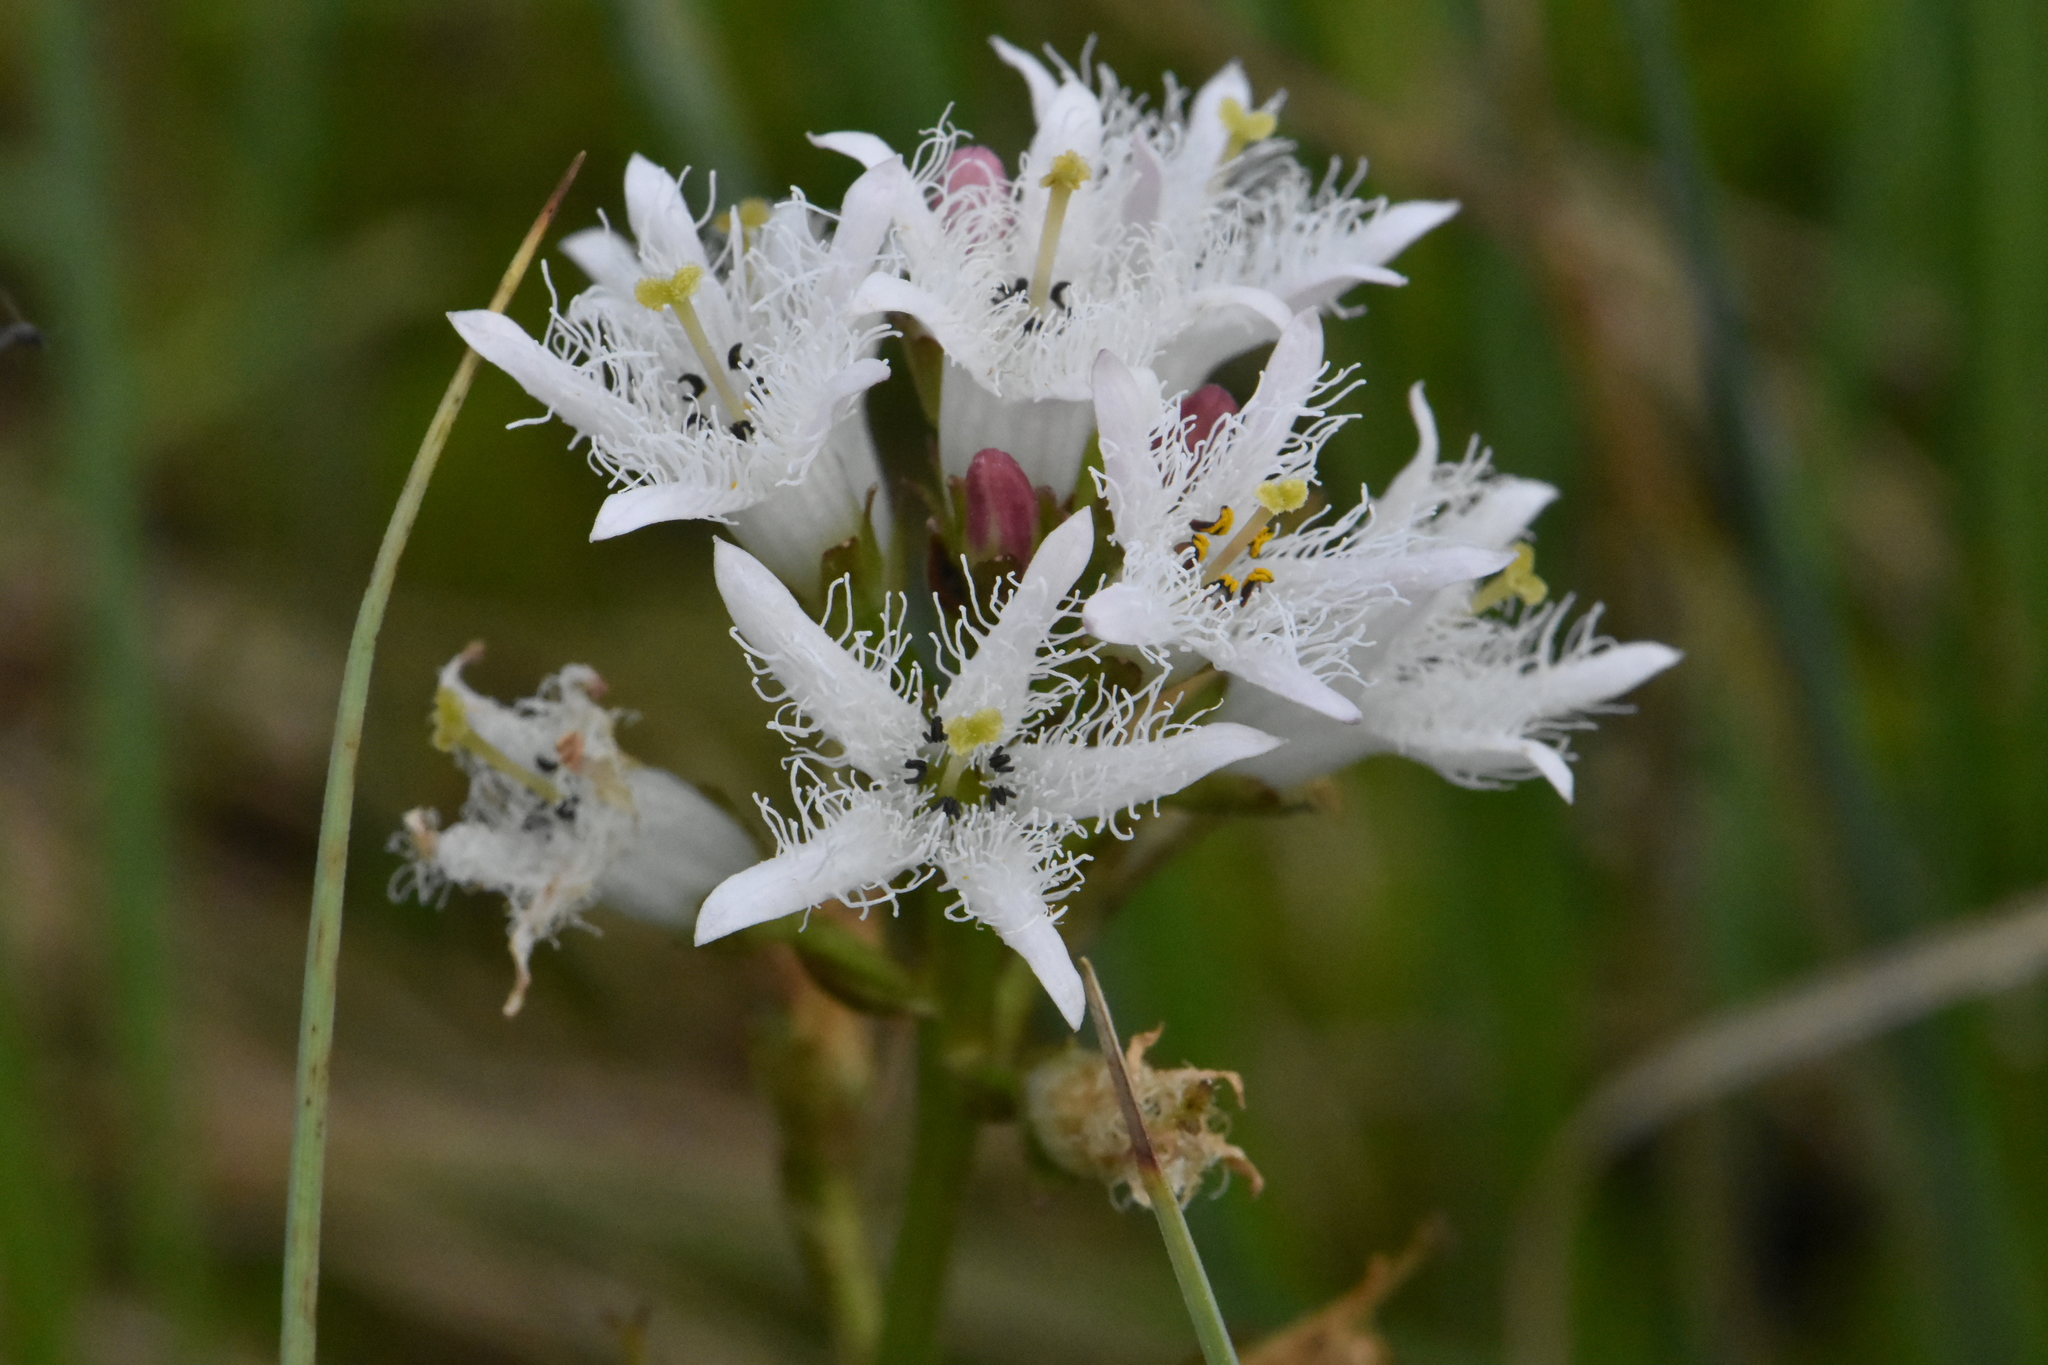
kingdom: Plantae
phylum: Tracheophyta
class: Magnoliopsida
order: Asterales
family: Menyanthaceae
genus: Menyanthes
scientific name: Menyanthes trifoliata
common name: Bogbean
